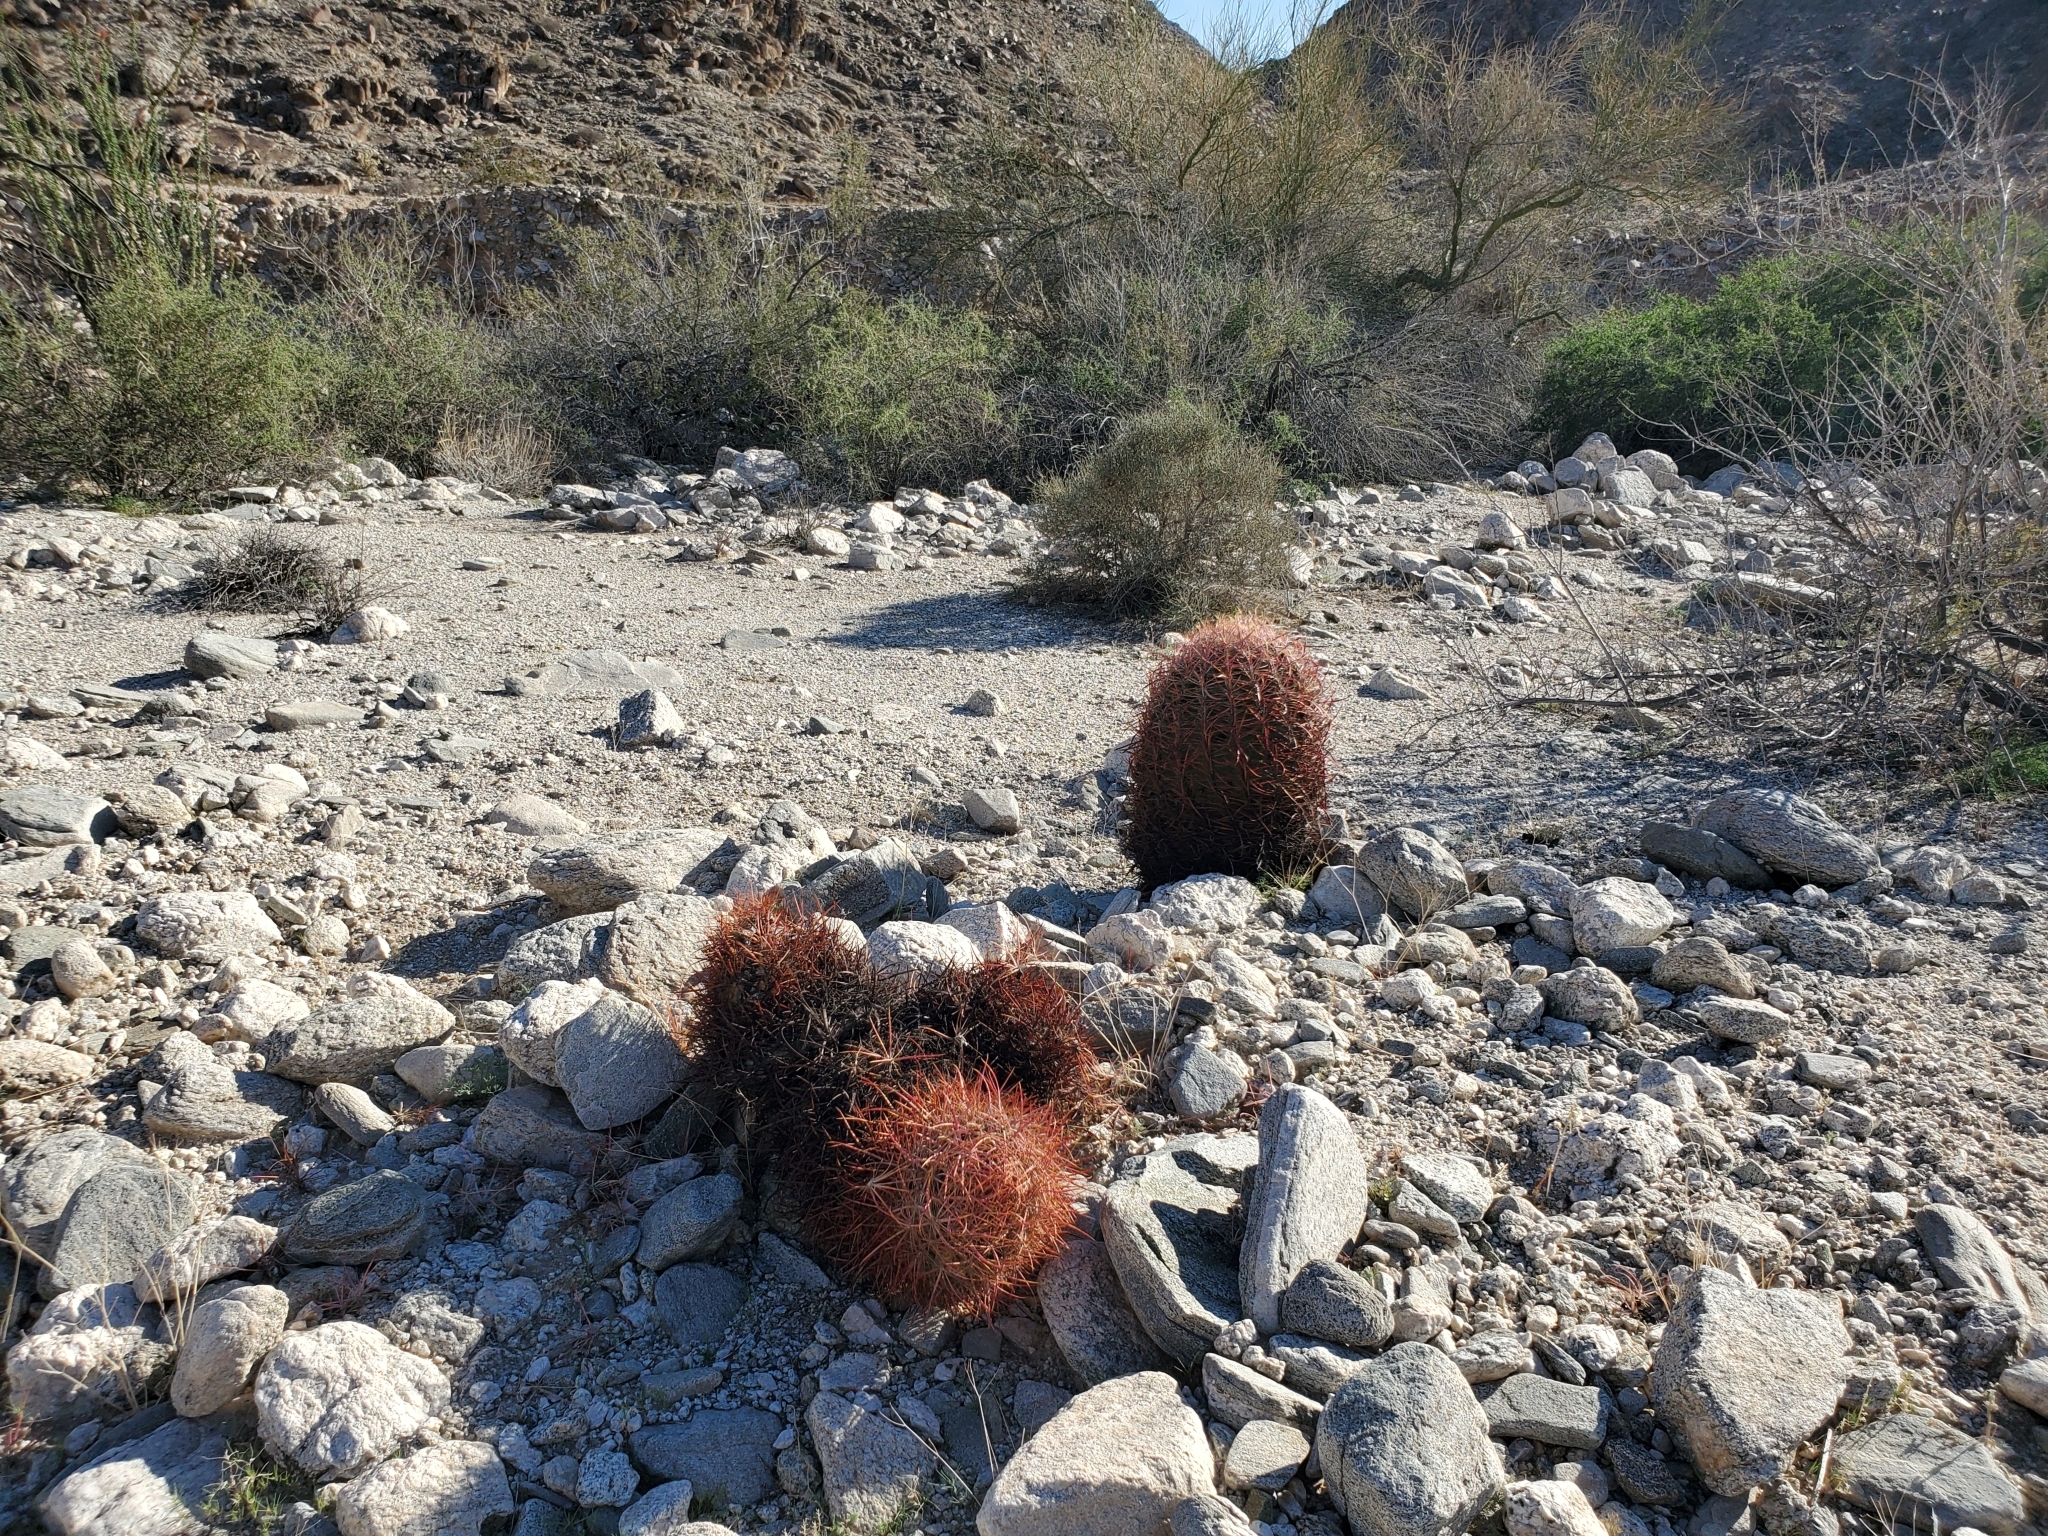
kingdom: Plantae
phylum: Tracheophyta
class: Magnoliopsida
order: Caryophyllales
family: Cactaceae
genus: Ferocactus
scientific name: Ferocactus cylindraceus
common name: California barrel cactus
